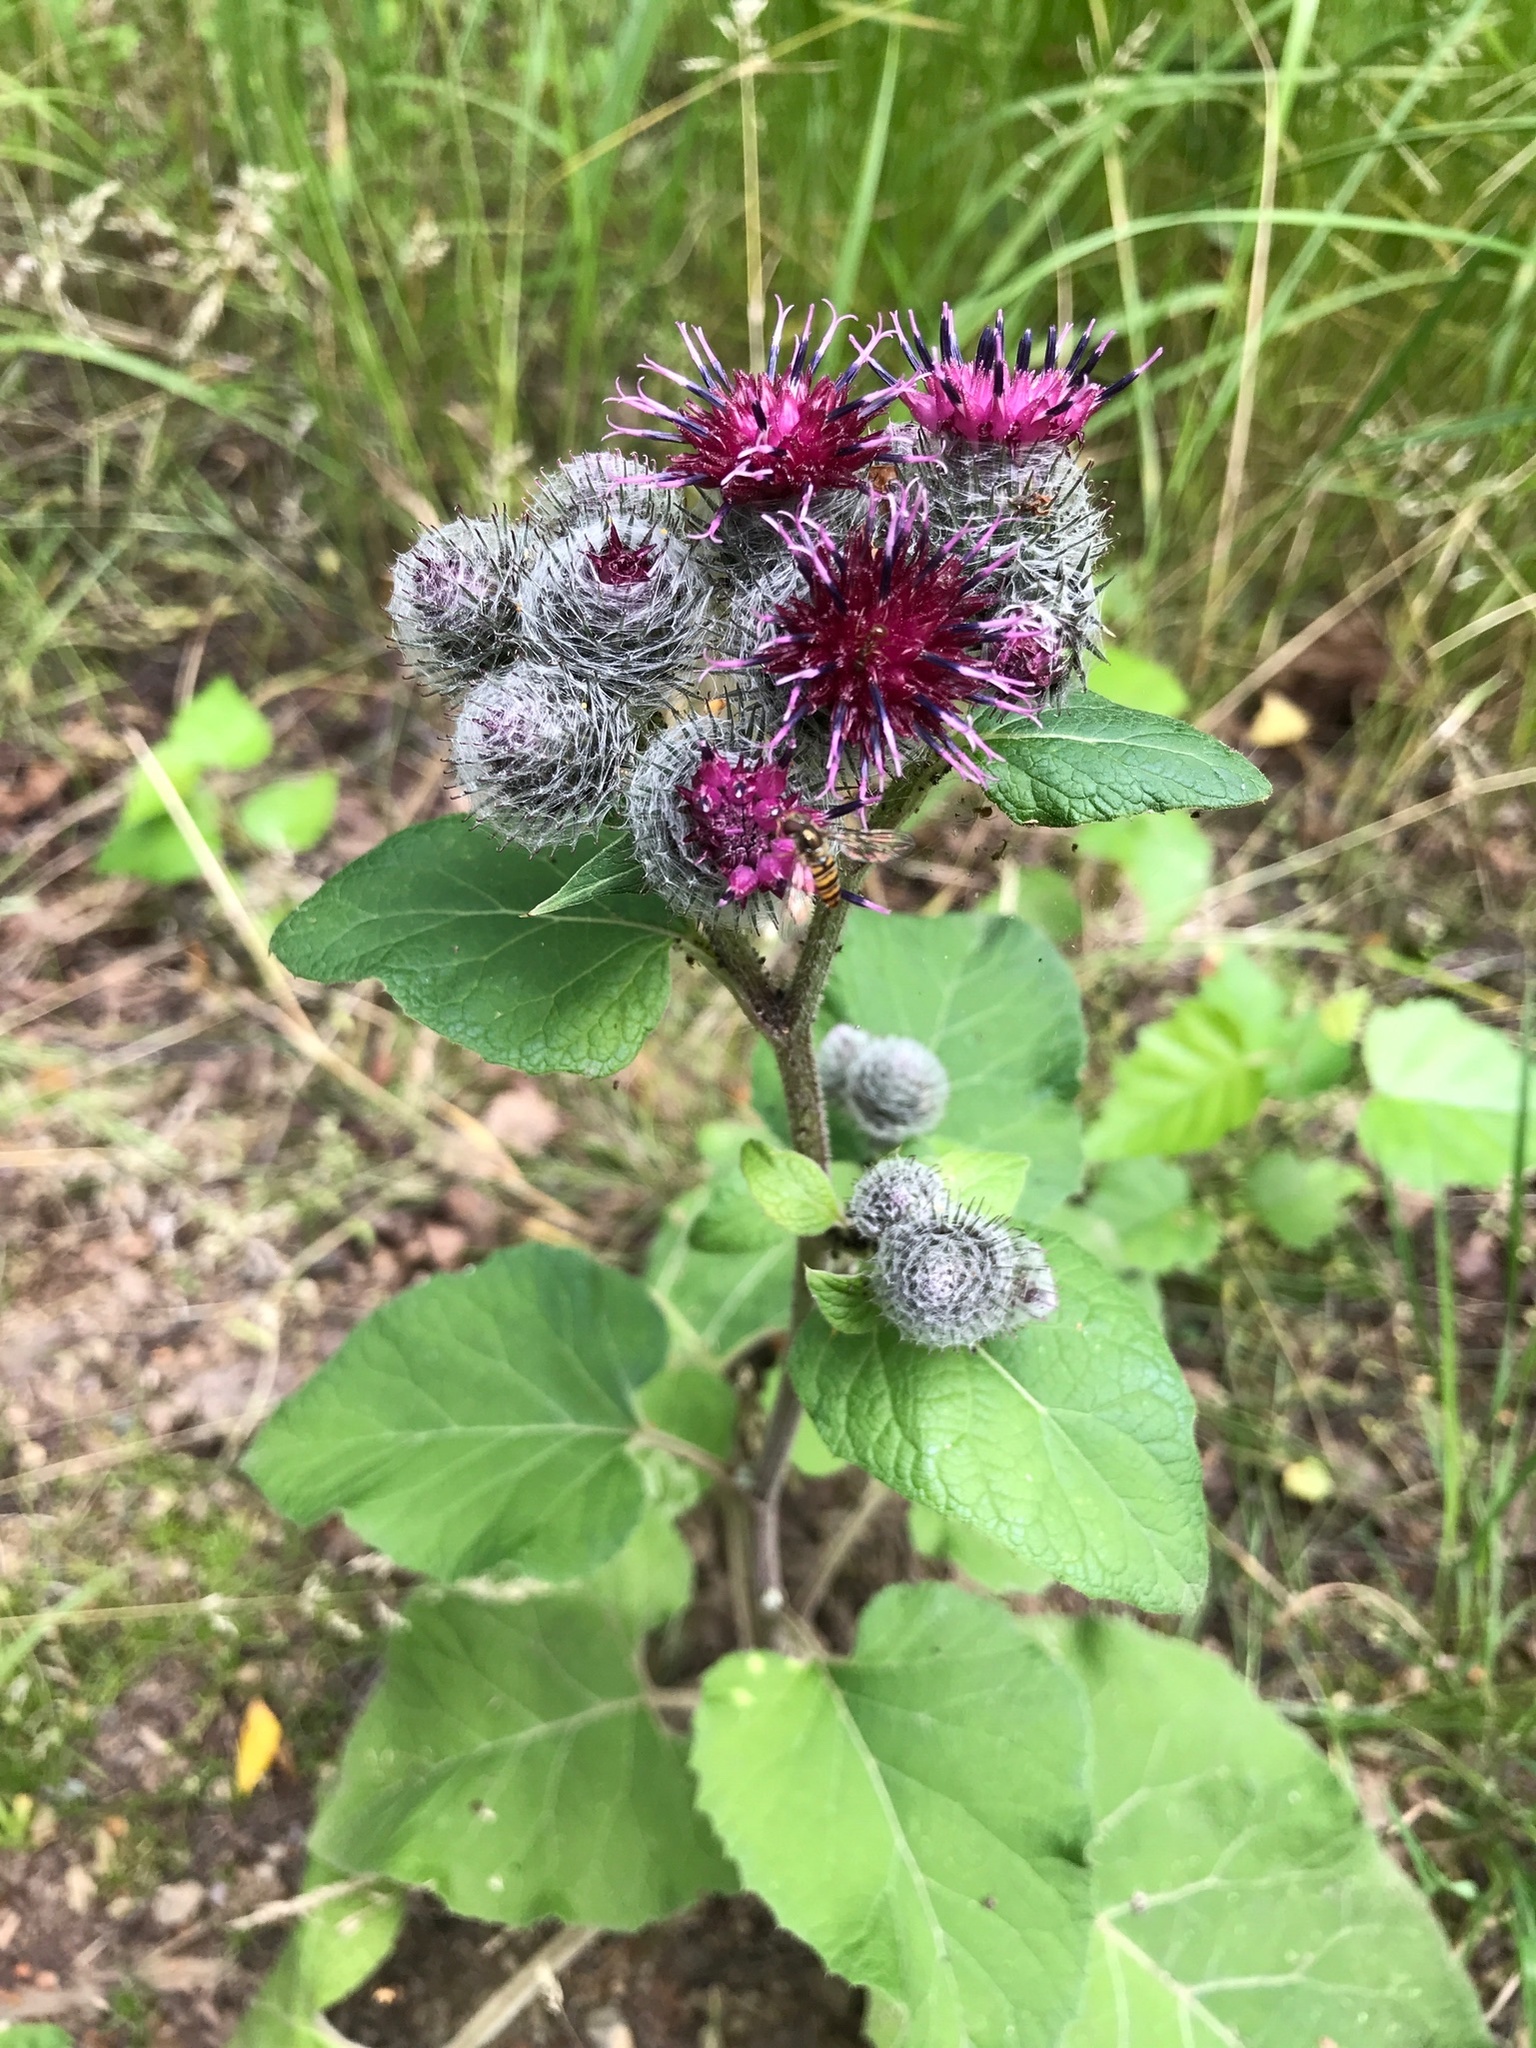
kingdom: Plantae
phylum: Tracheophyta
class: Magnoliopsida
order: Asterales
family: Asteraceae
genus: Arctium
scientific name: Arctium tomentosum
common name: Woolly burdock
